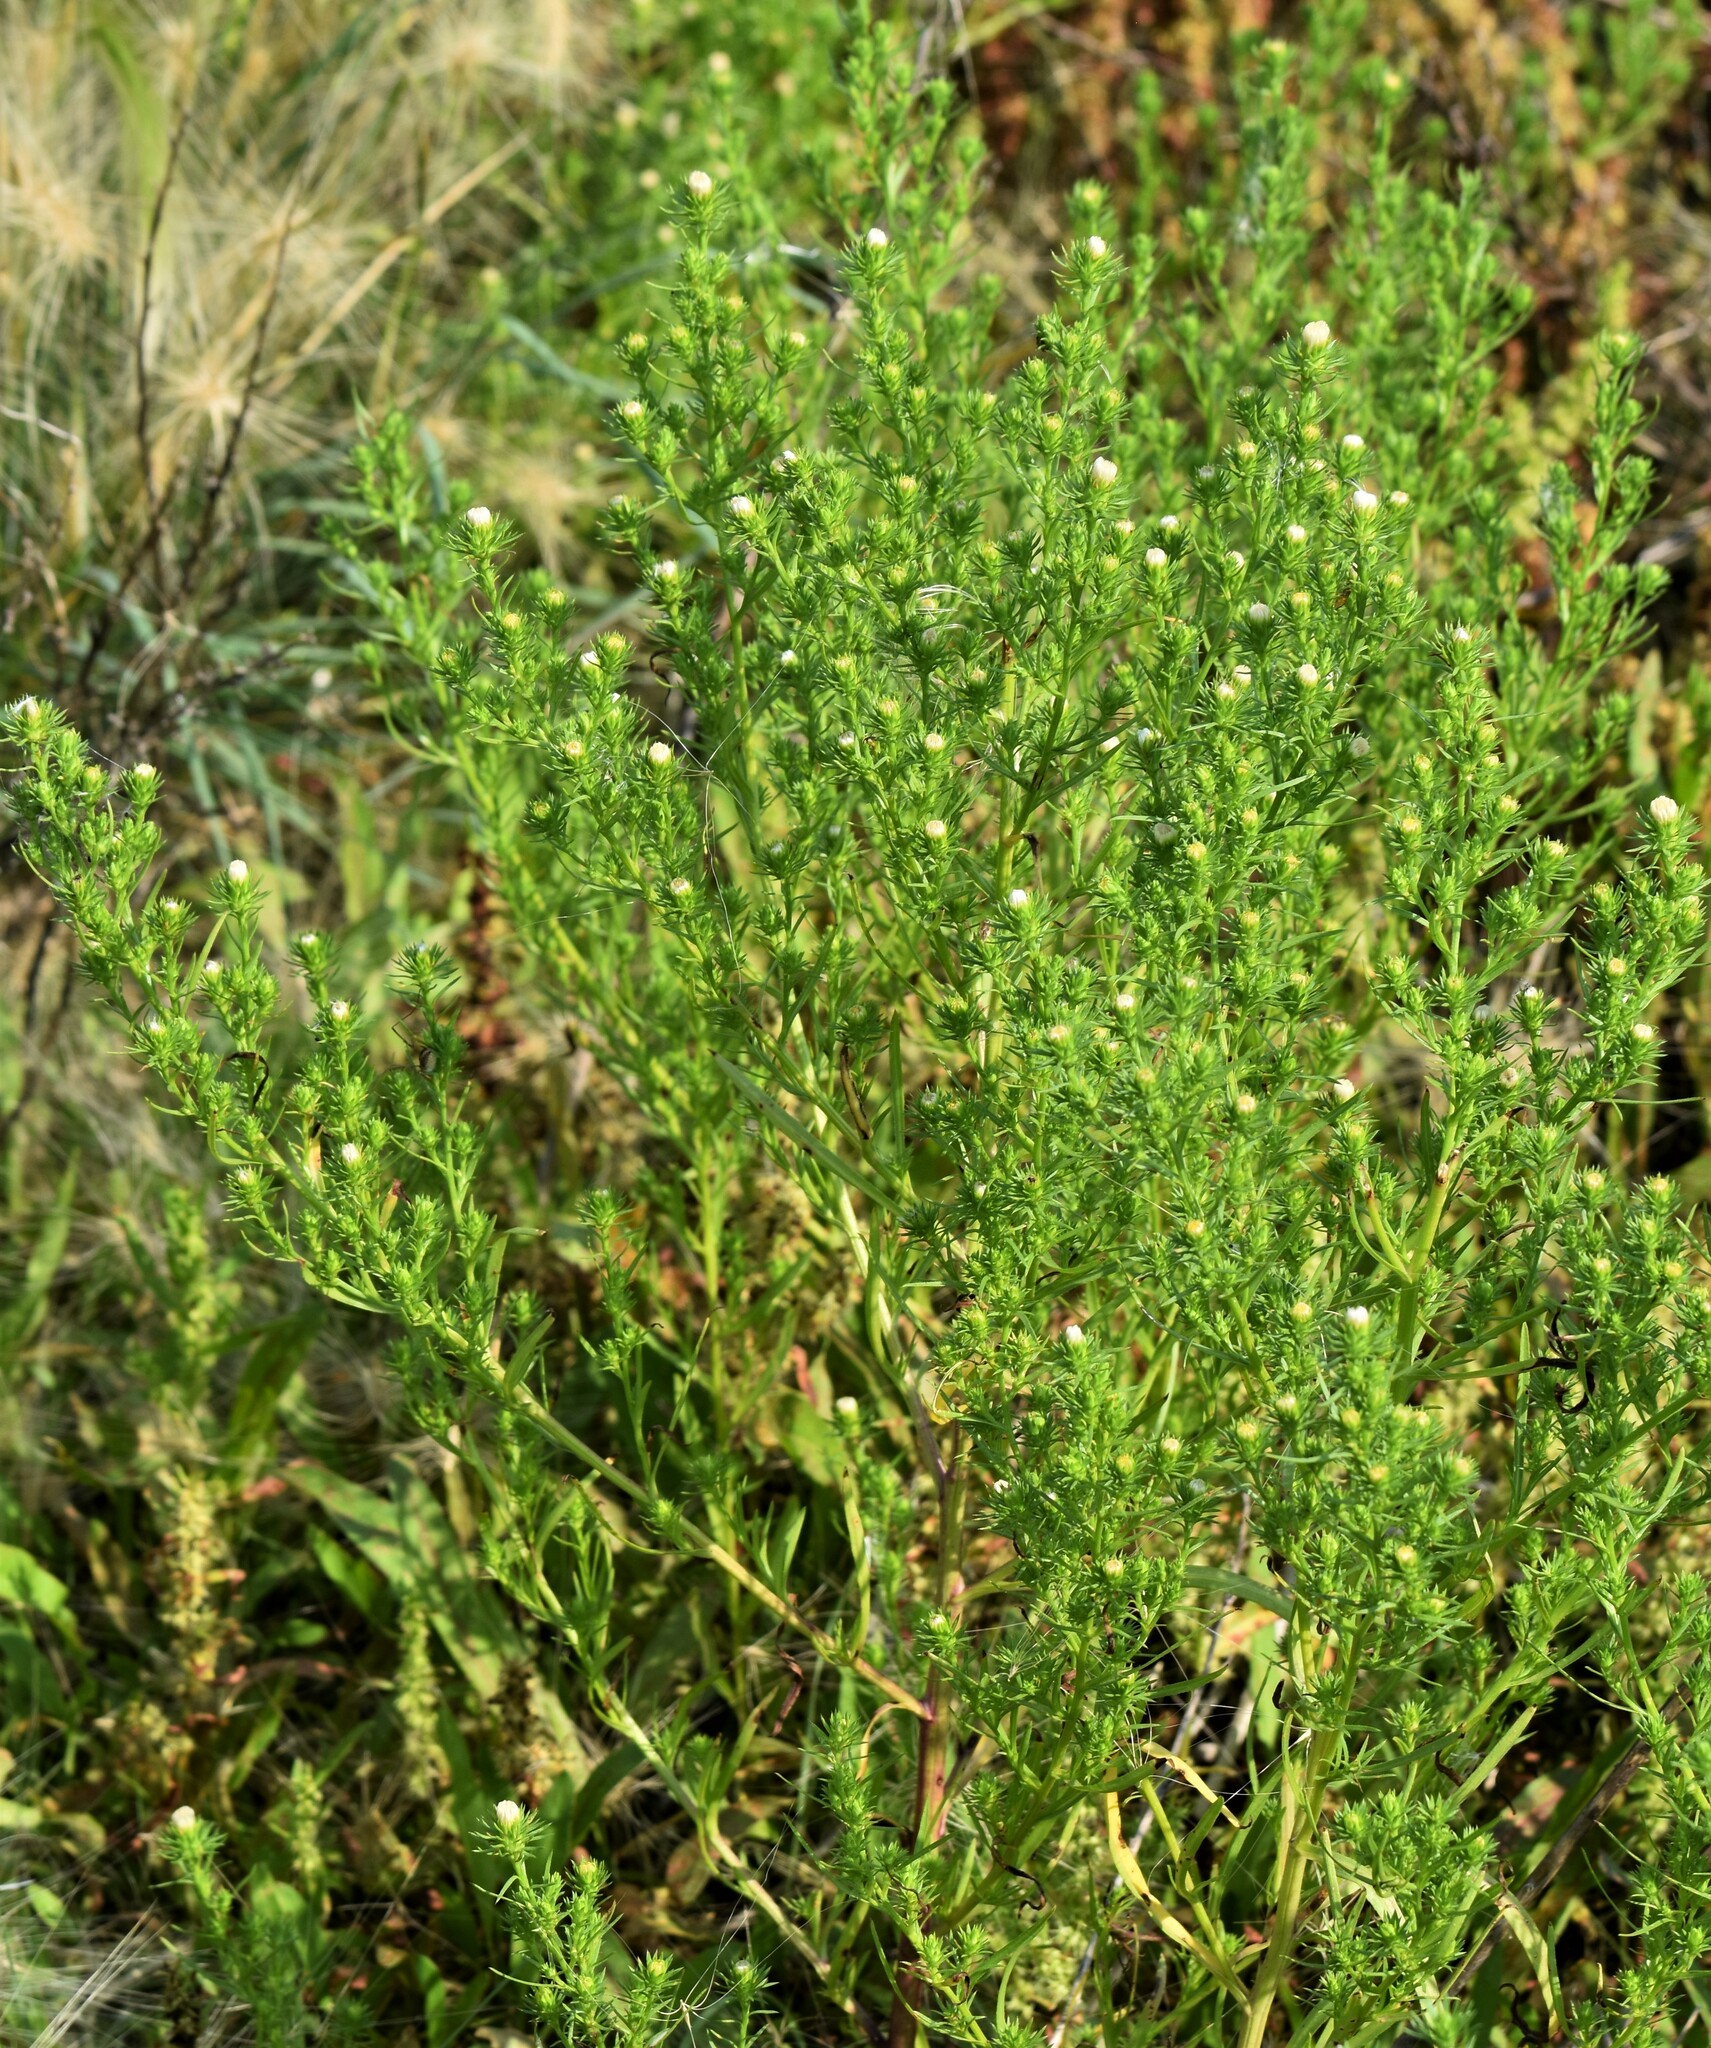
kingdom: Plantae
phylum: Tracheophyta
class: Magnoliopsida
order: Asterales
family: Asteraceae
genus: Symphyotrichum
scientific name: Symphyotrichum ciliatum
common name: Rayless annual aster
